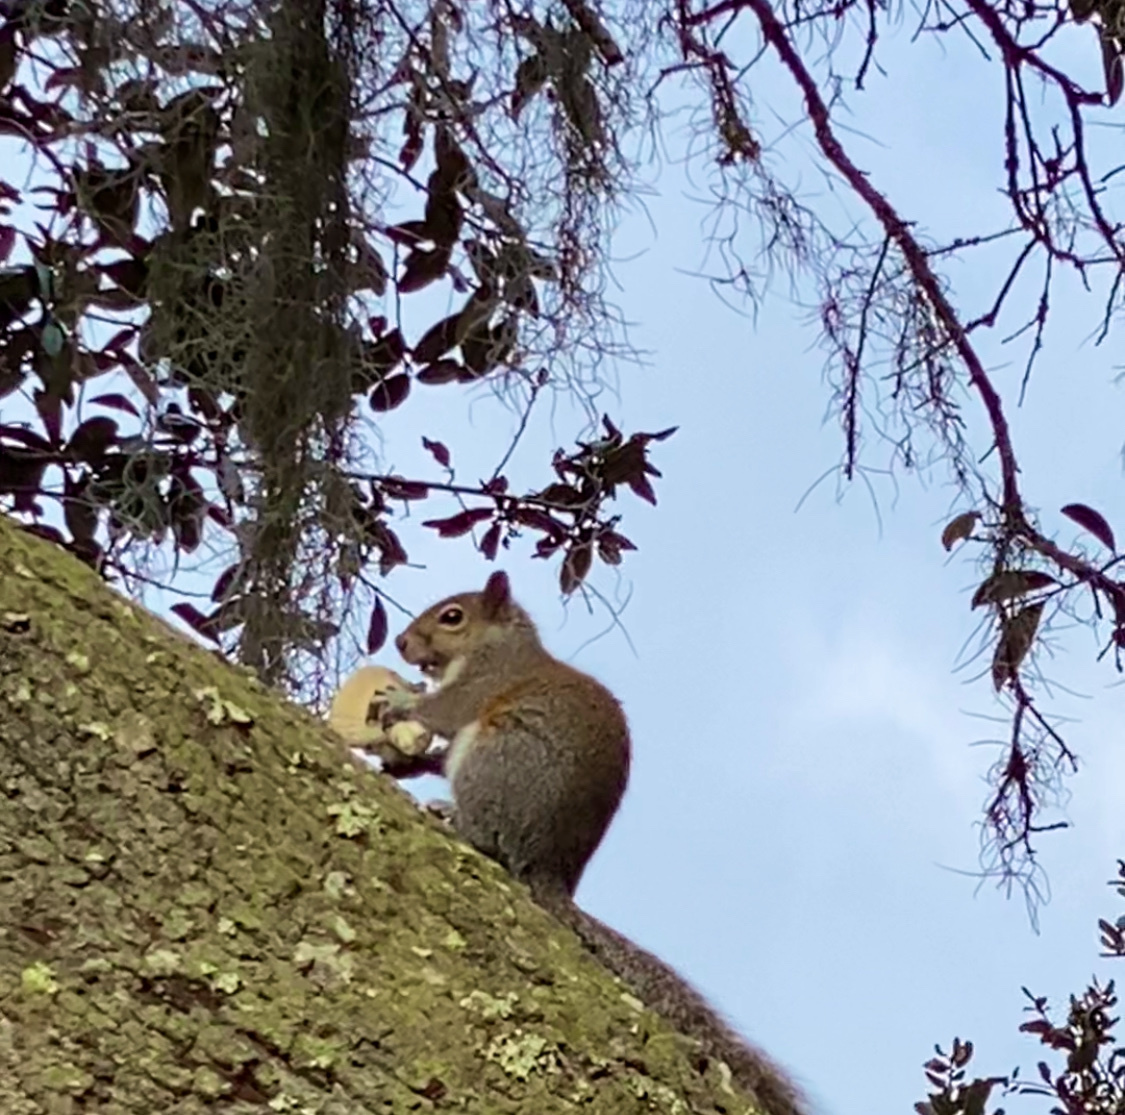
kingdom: Animalia
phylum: Chordata
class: Mammalia
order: Rodentia
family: Sciuridae
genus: Sciurus
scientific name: Sciurus carolinensis
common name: Eastern gray squirrel
